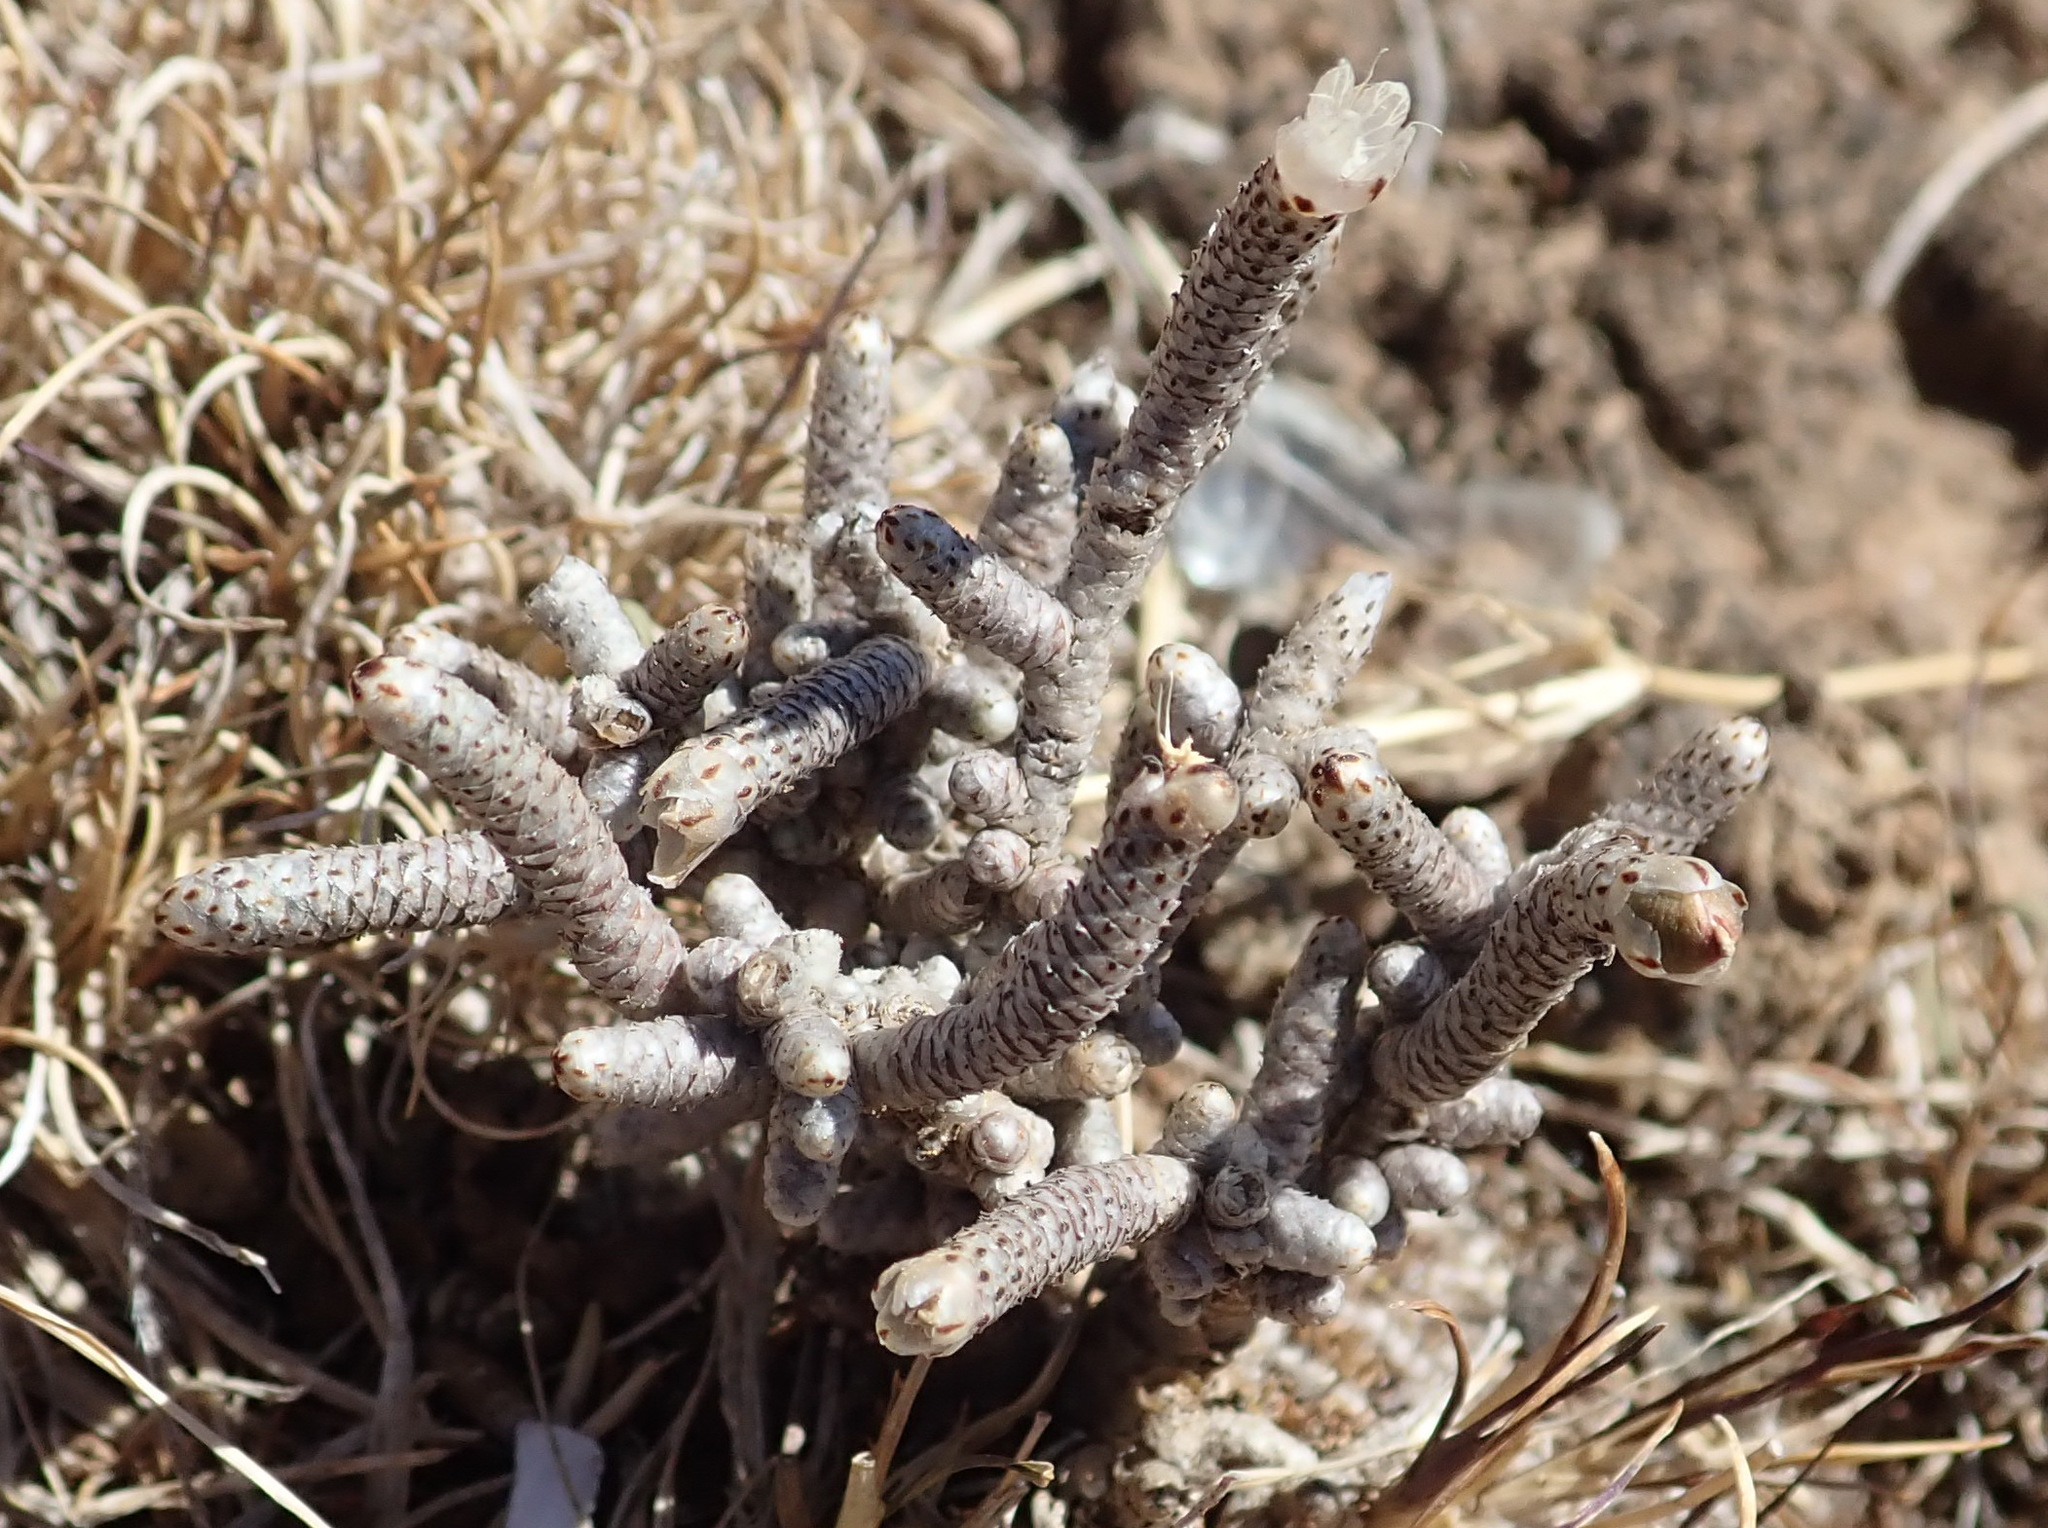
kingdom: Plantae
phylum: Tracheophyta
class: Magnoliopsida
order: Caryophyllales
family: Anacampserotaceae
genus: Avonia
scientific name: Avonia ustulata
